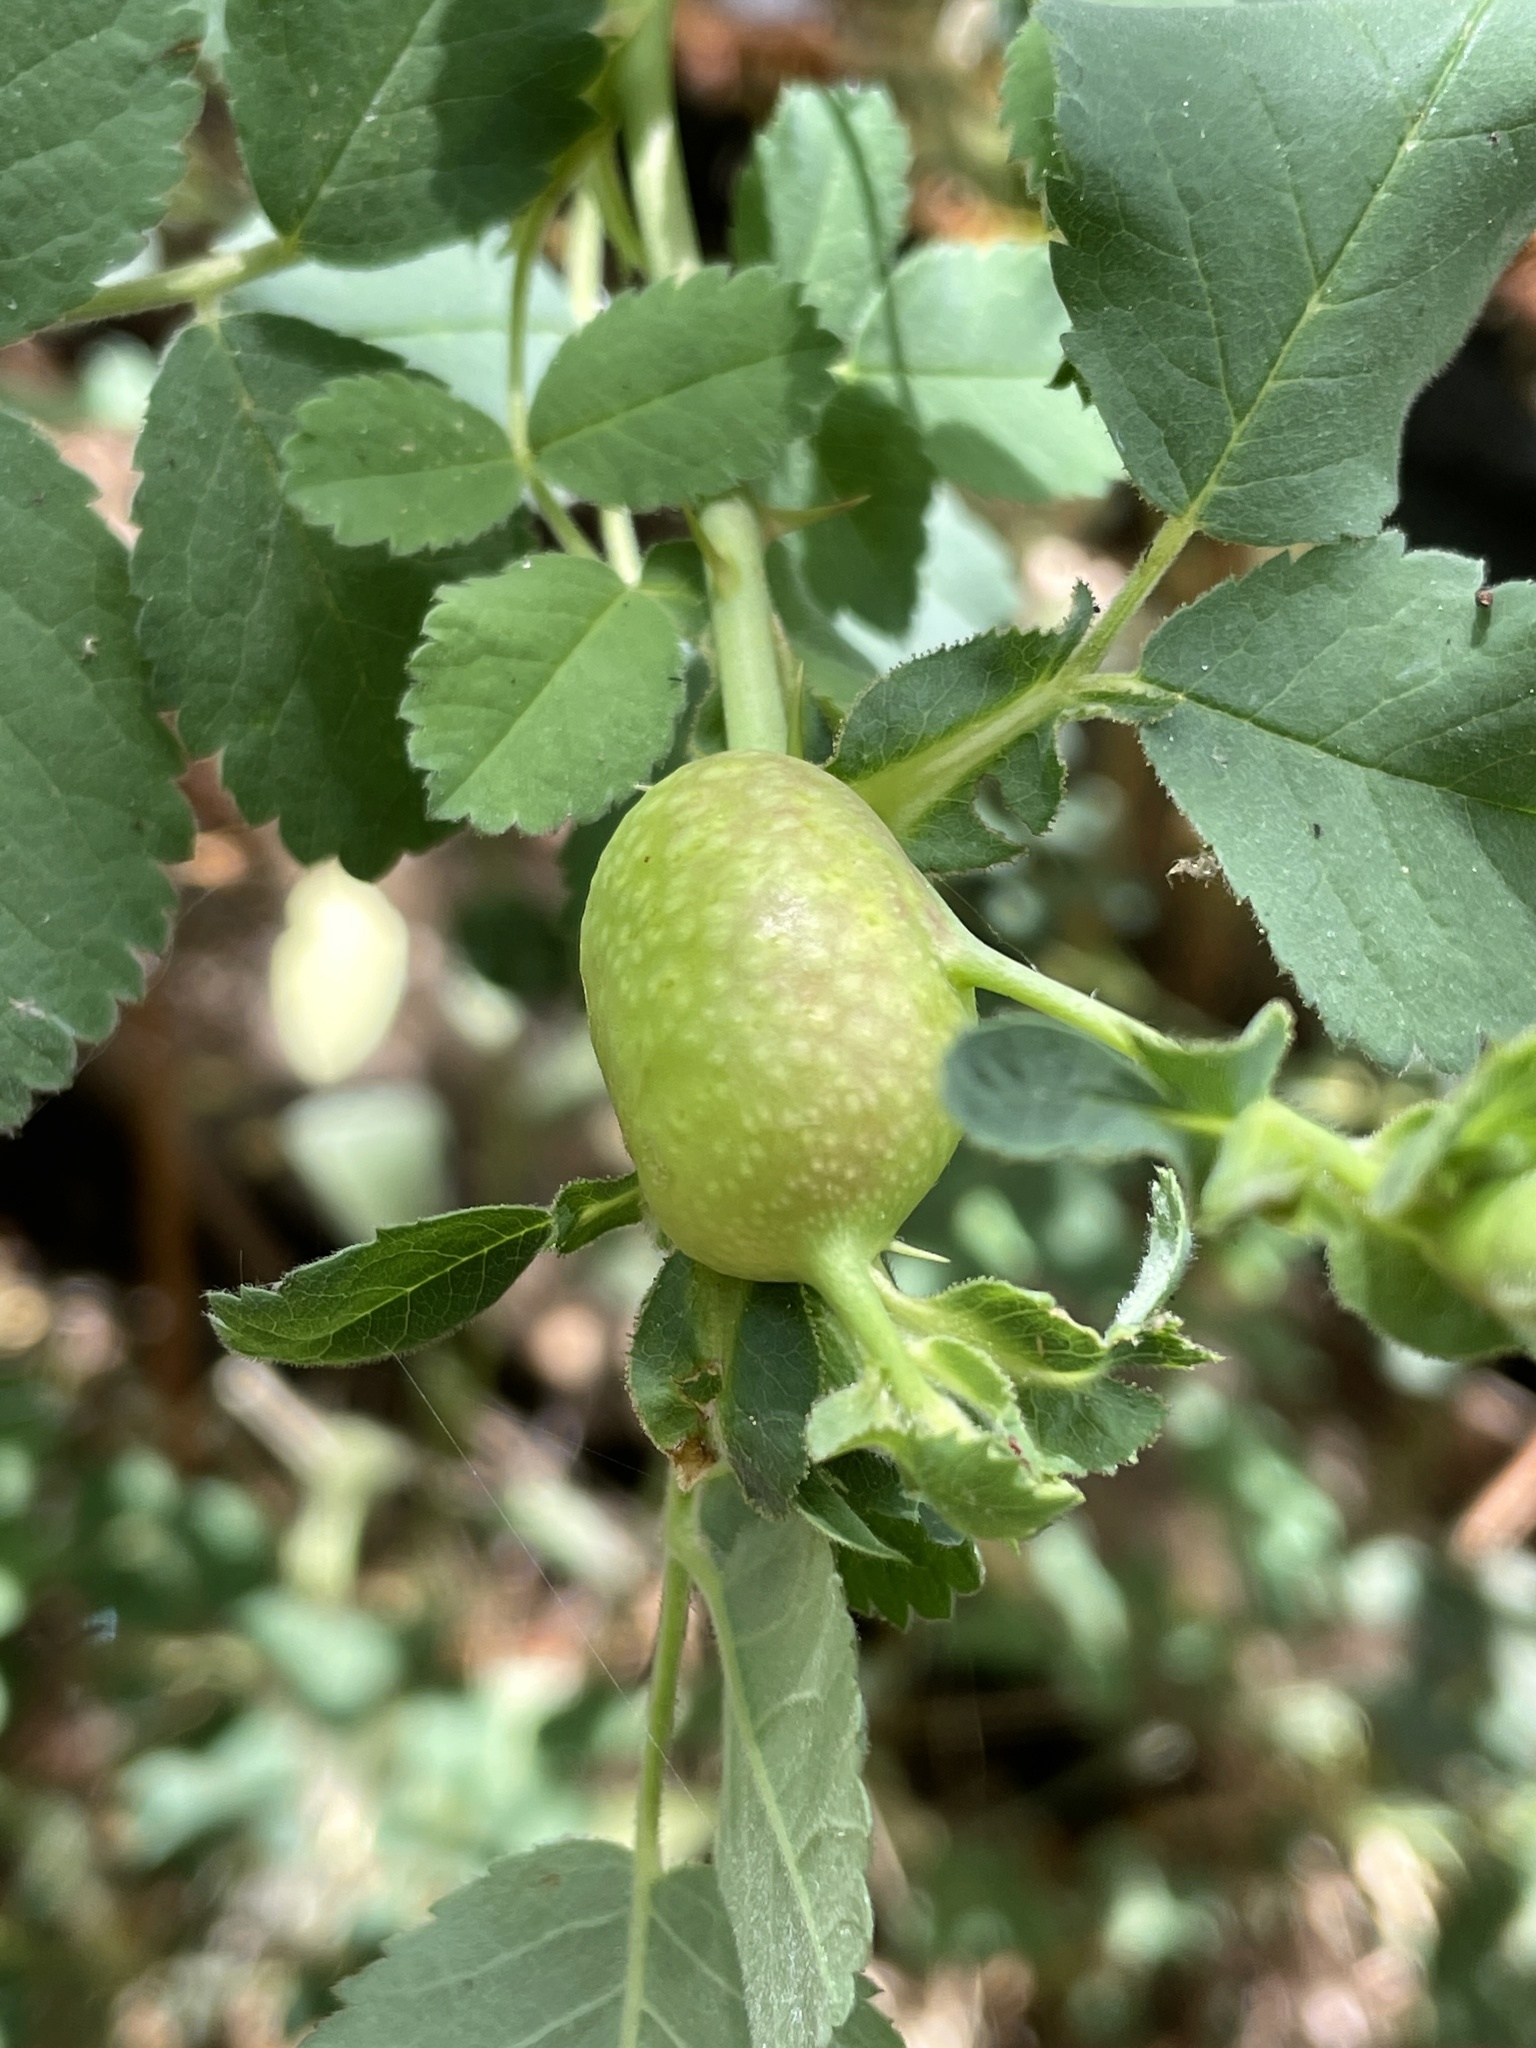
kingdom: Animalia
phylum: Arthropoda
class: Insecta
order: Hymenoptera
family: Cynipidae
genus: Periclistus
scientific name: Periclistus pirata
